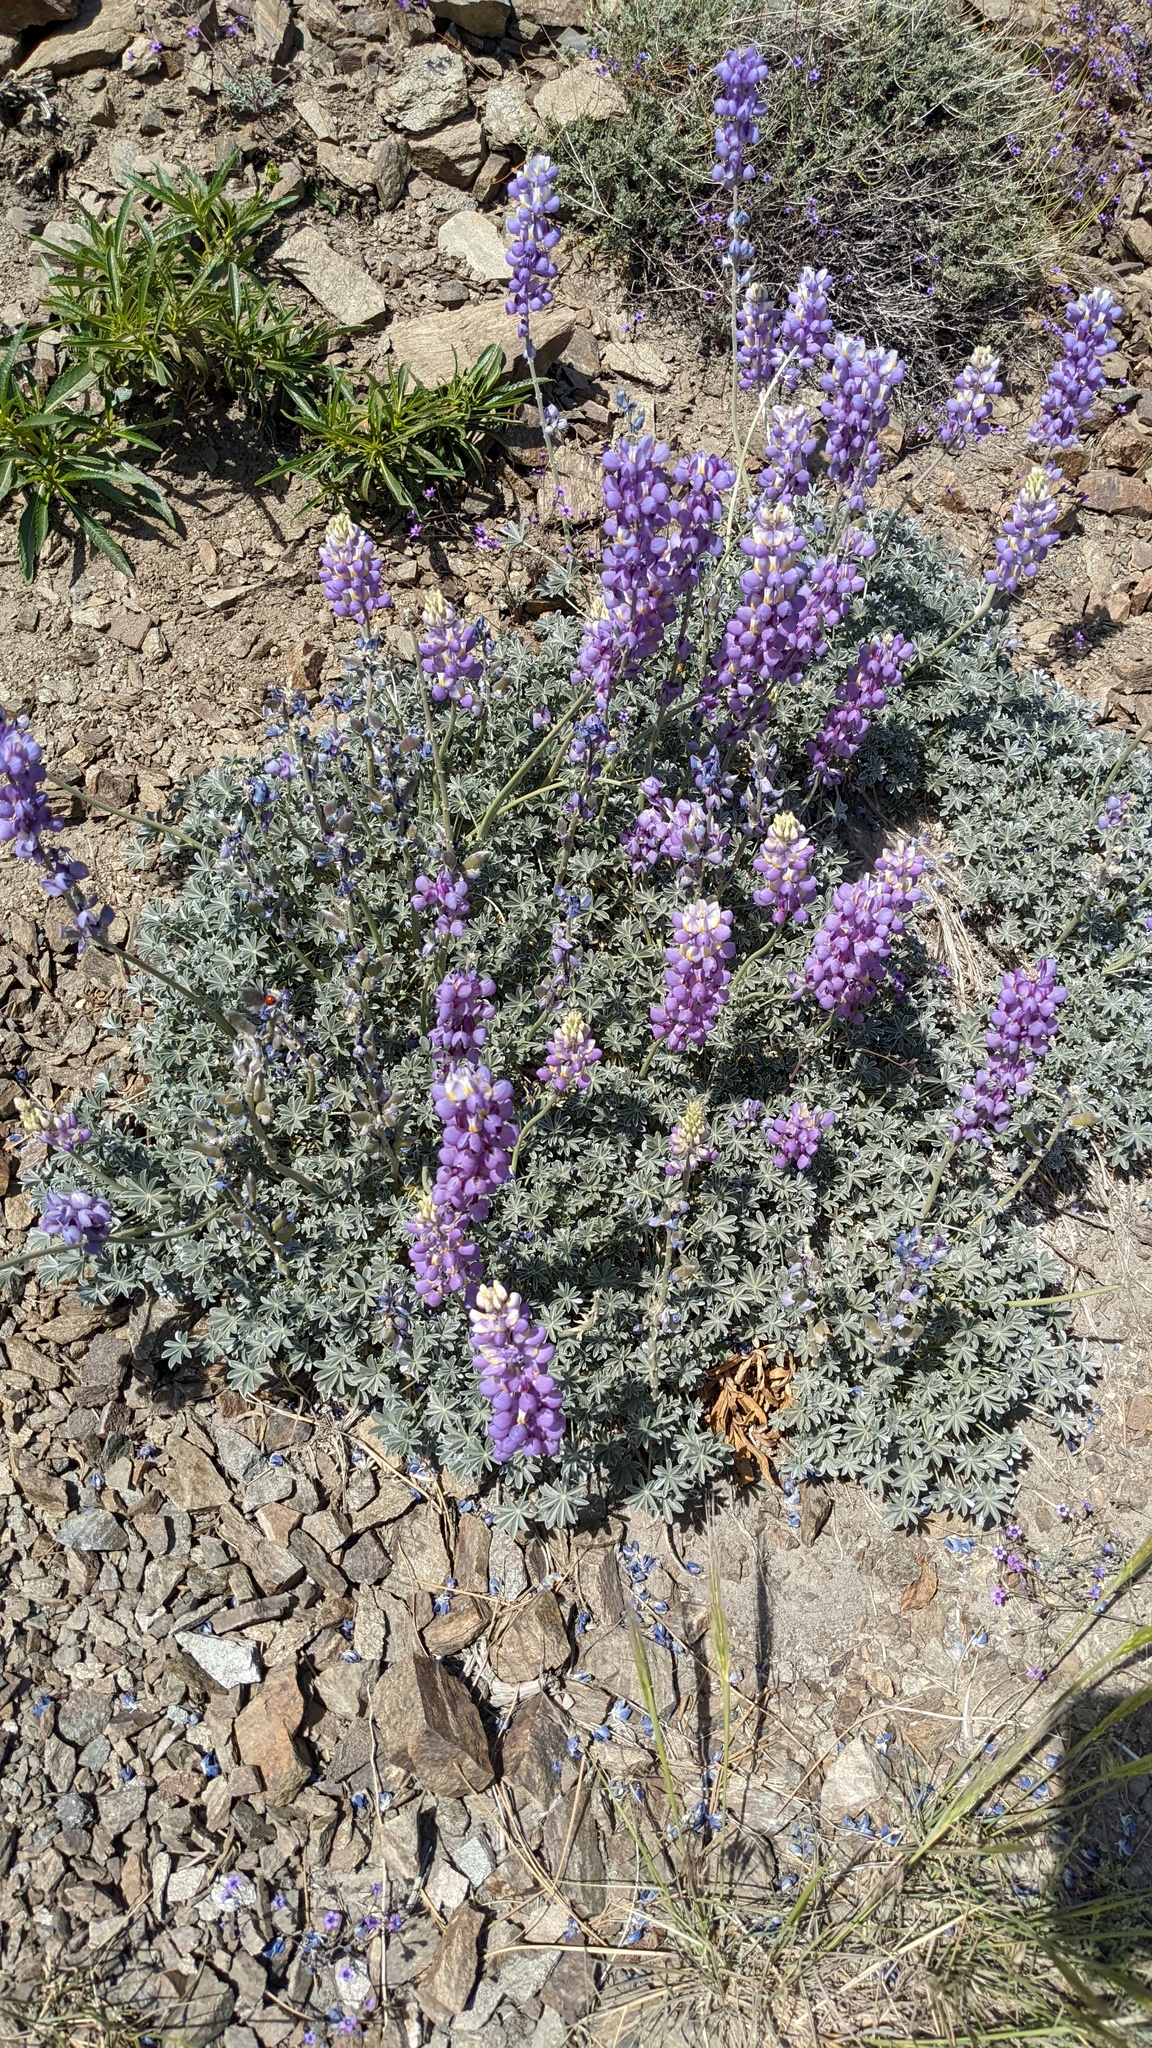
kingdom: Plantae
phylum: Tracheophyta
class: Magnoliopsida
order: Fabales
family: Fabaceae
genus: Lupinus
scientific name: Lupinus excubitus
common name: Grape soda lupine
